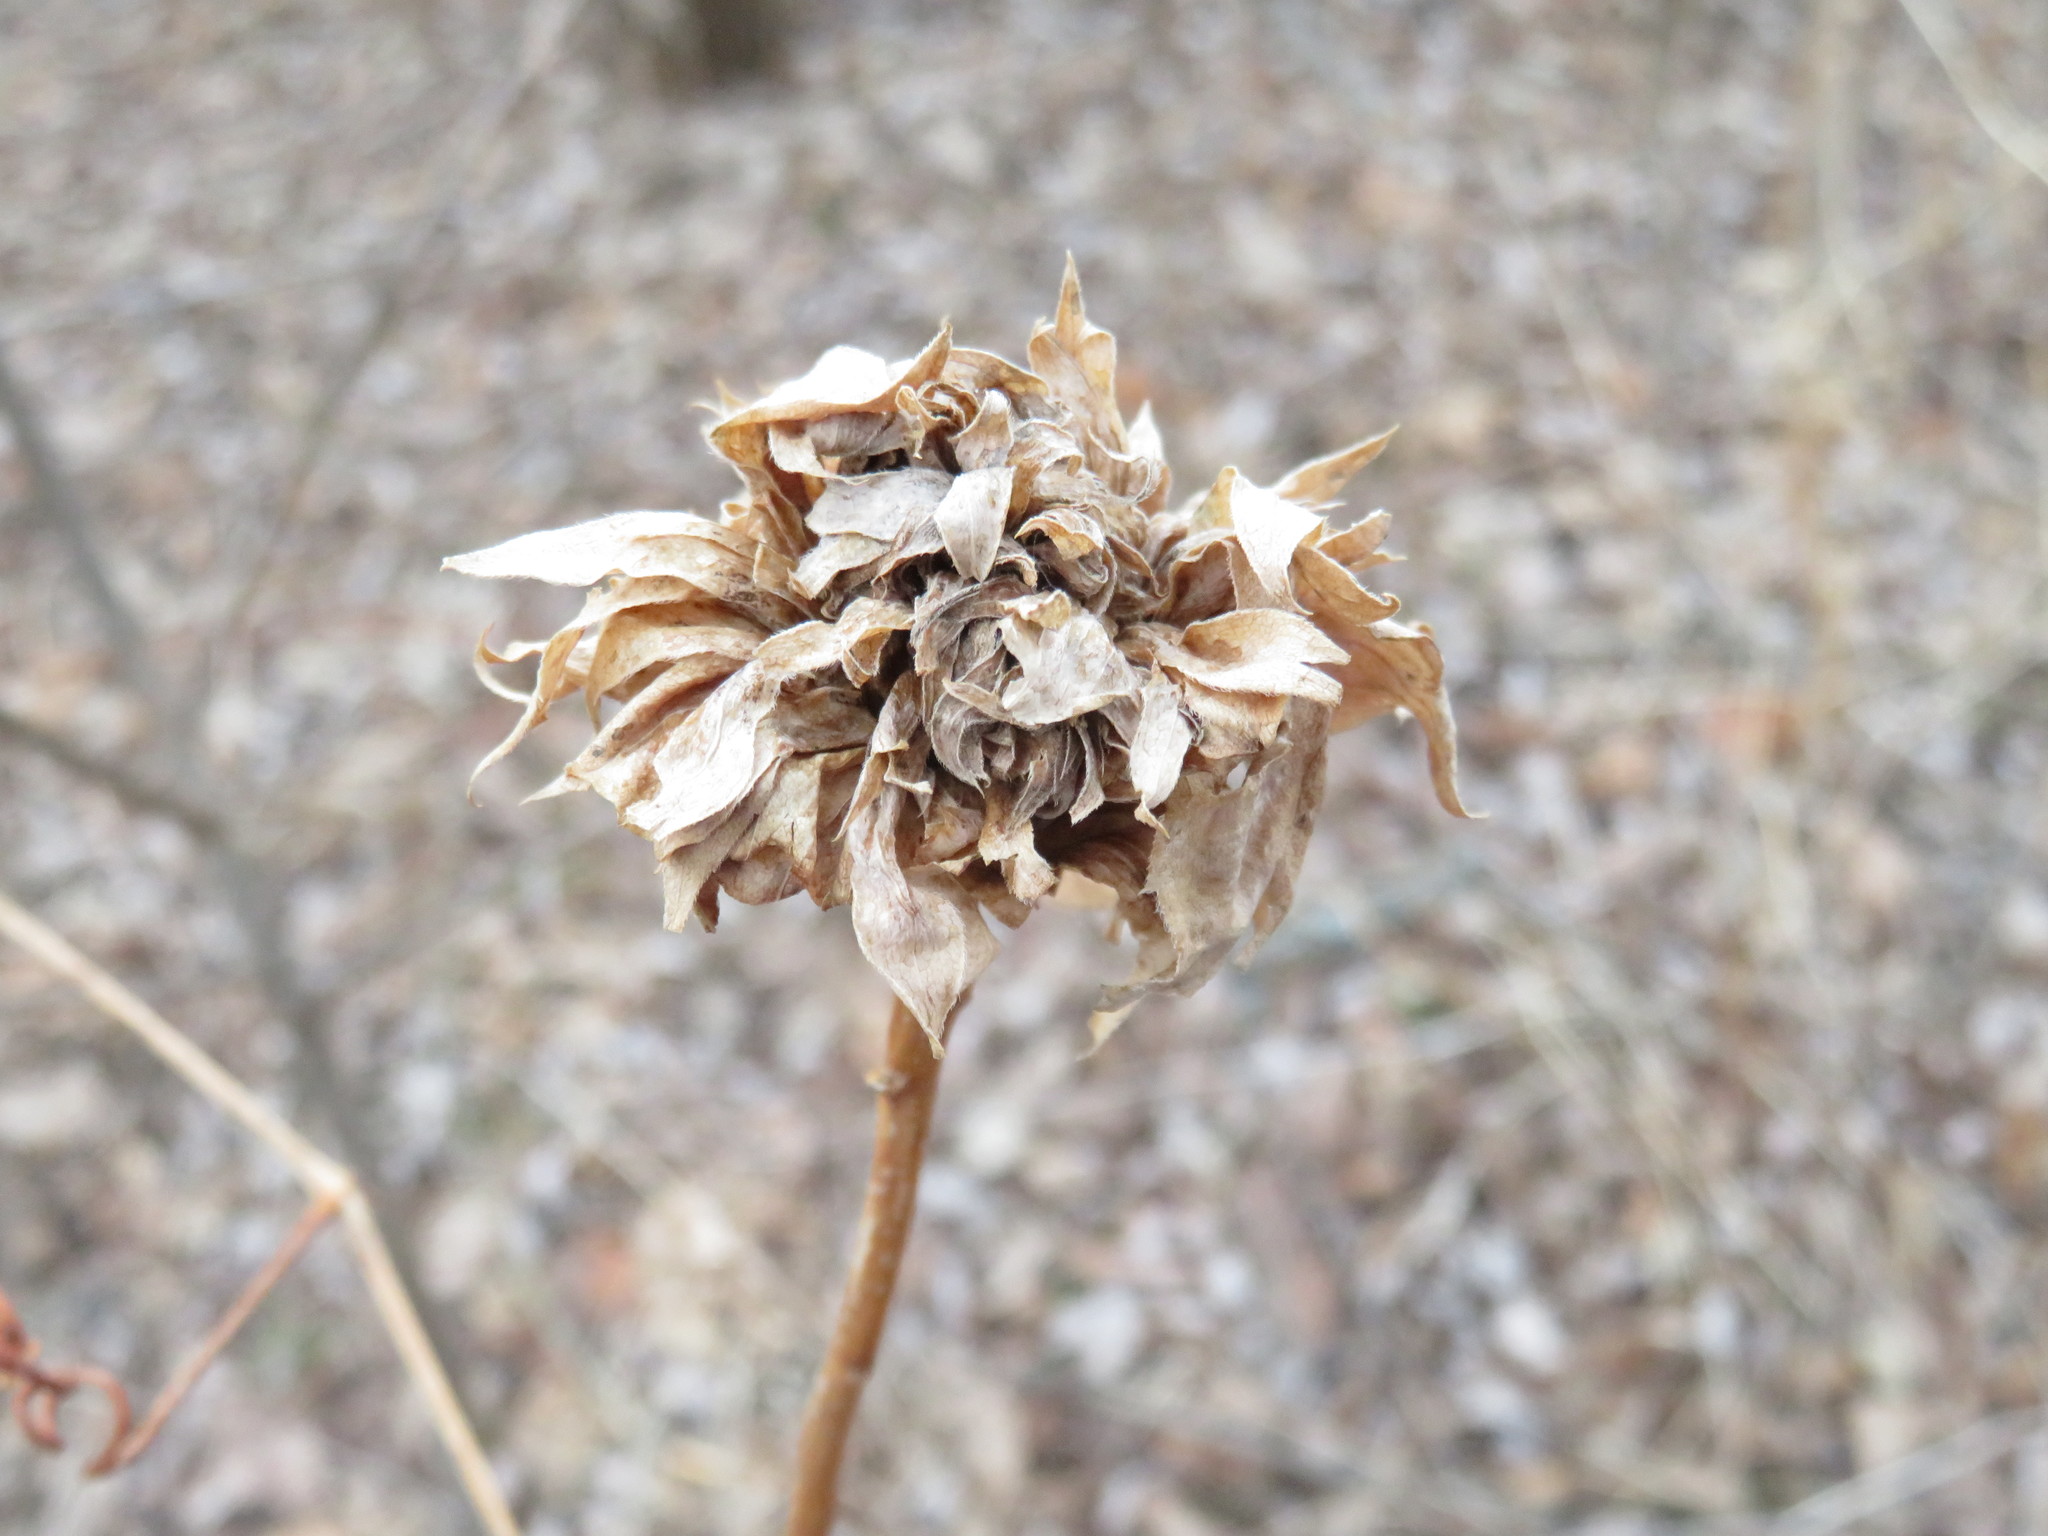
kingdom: Animalia
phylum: Arthropoda
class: Insecta
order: Diptera
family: Cecidomyiidae
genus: Rhopalomyia
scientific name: Rhopalomyia solidaginis
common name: Goldenrod bunch gall midge
